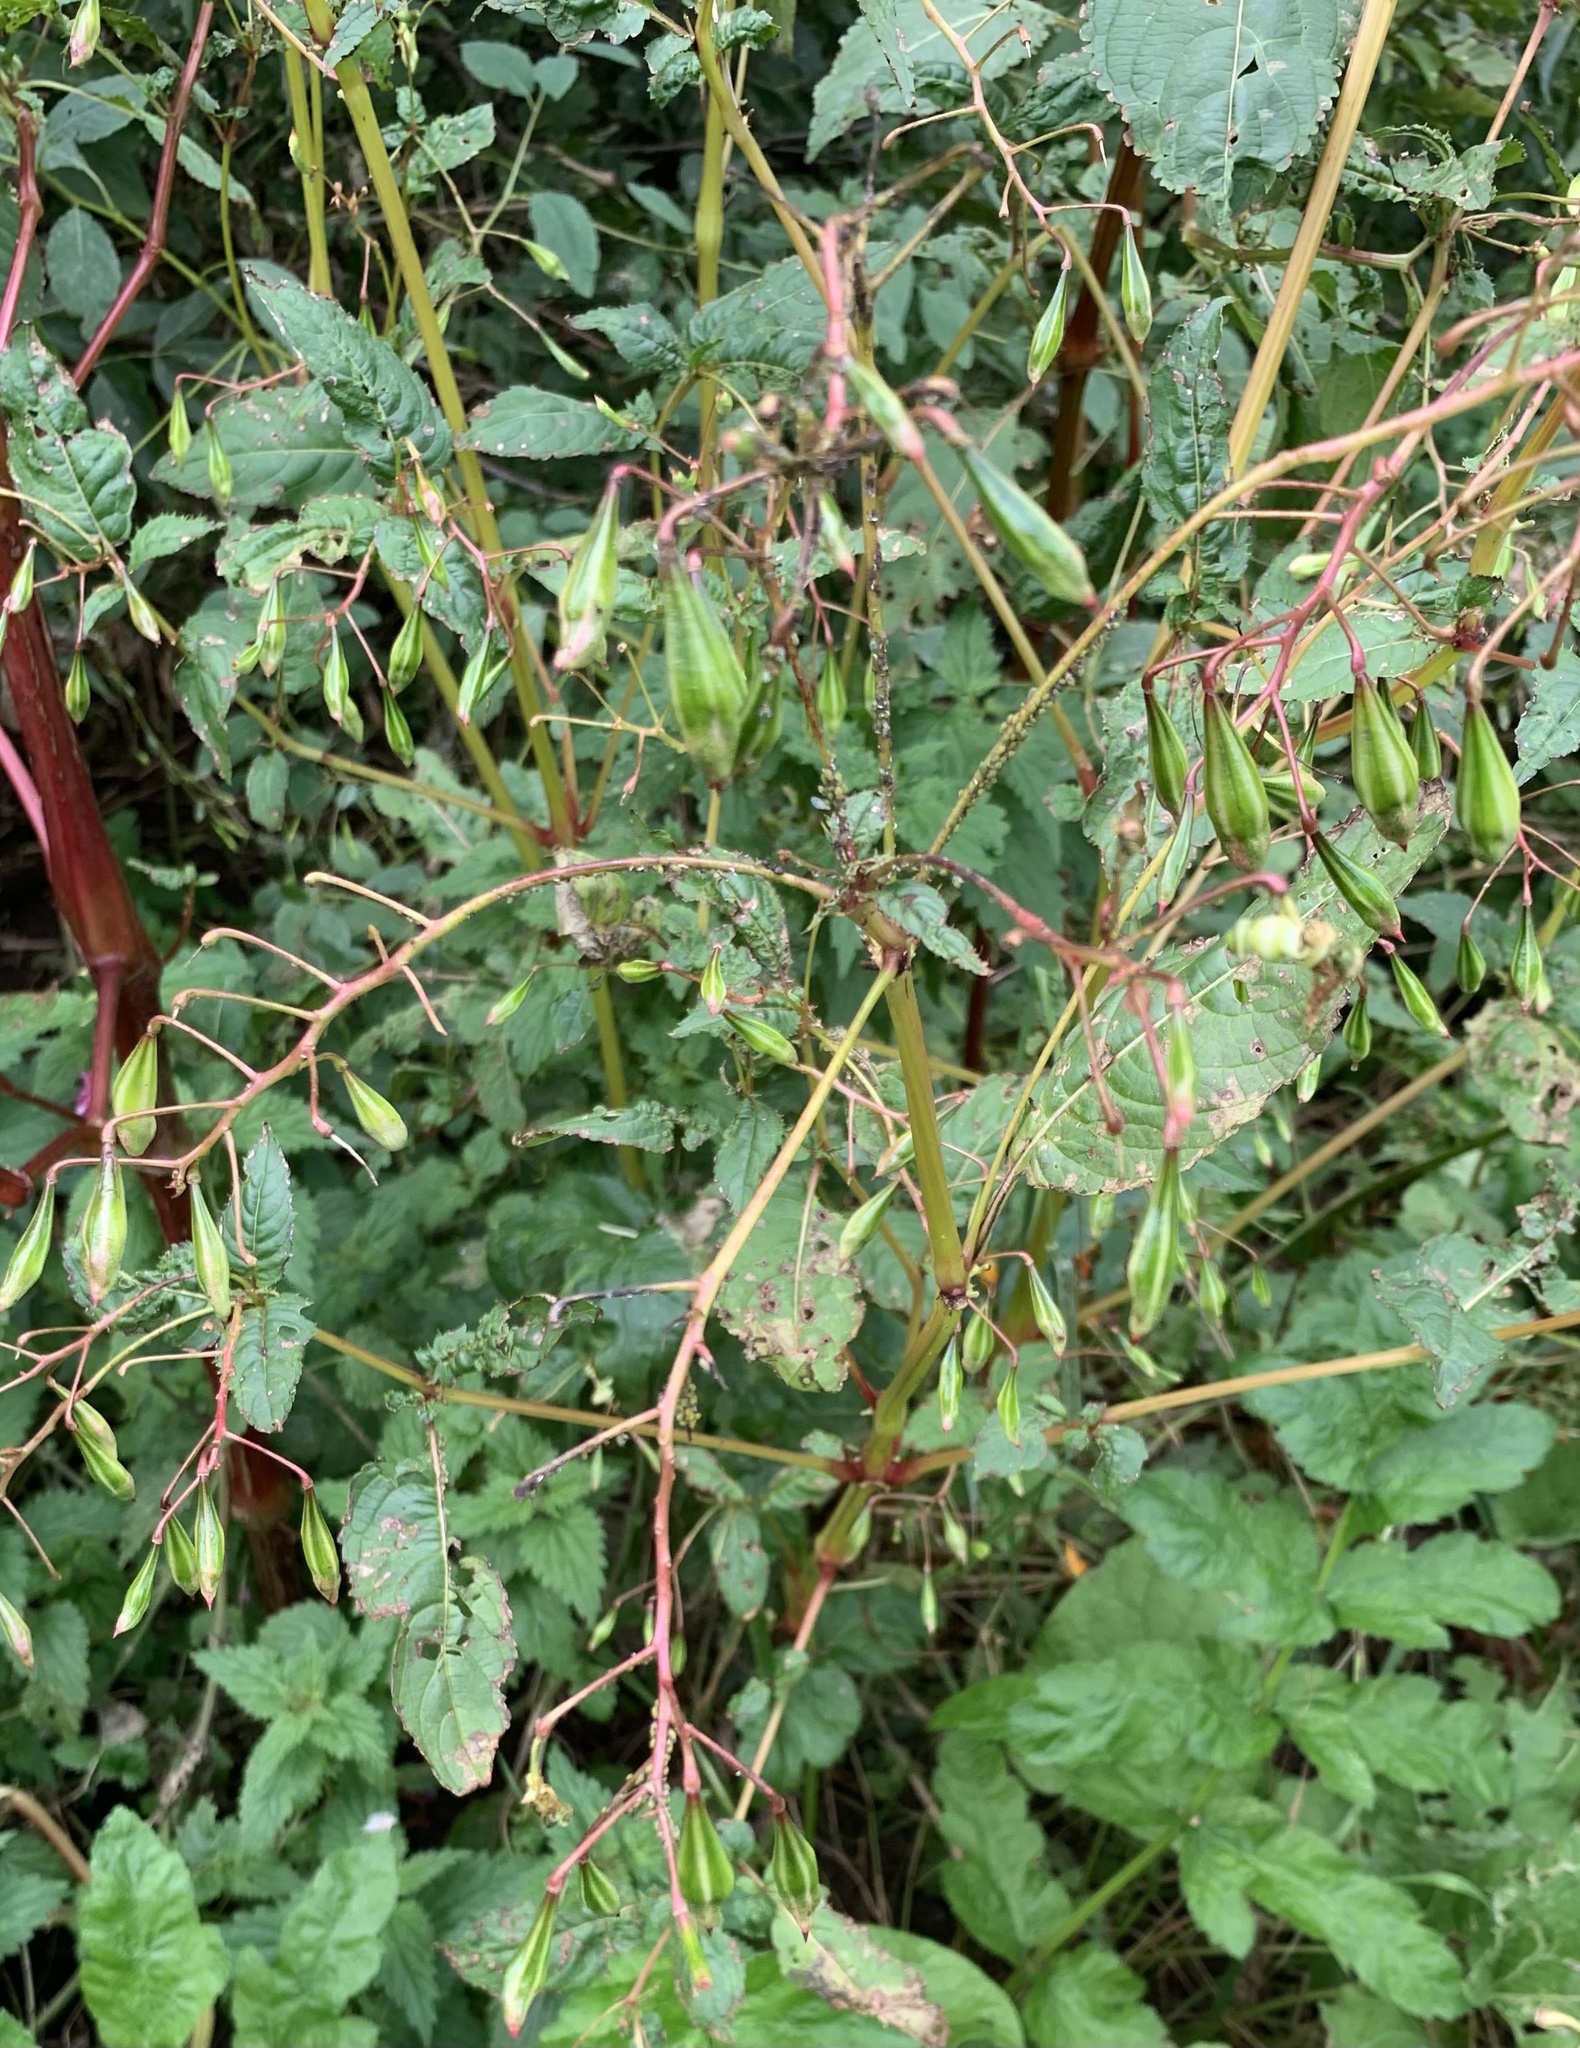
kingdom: Plantae
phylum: Tracheophyta
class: Magnoliopsida
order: Ericales
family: Balsaminaceae
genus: Impatiens
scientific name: Impatiens glandulifera
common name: Himalayan balsam
